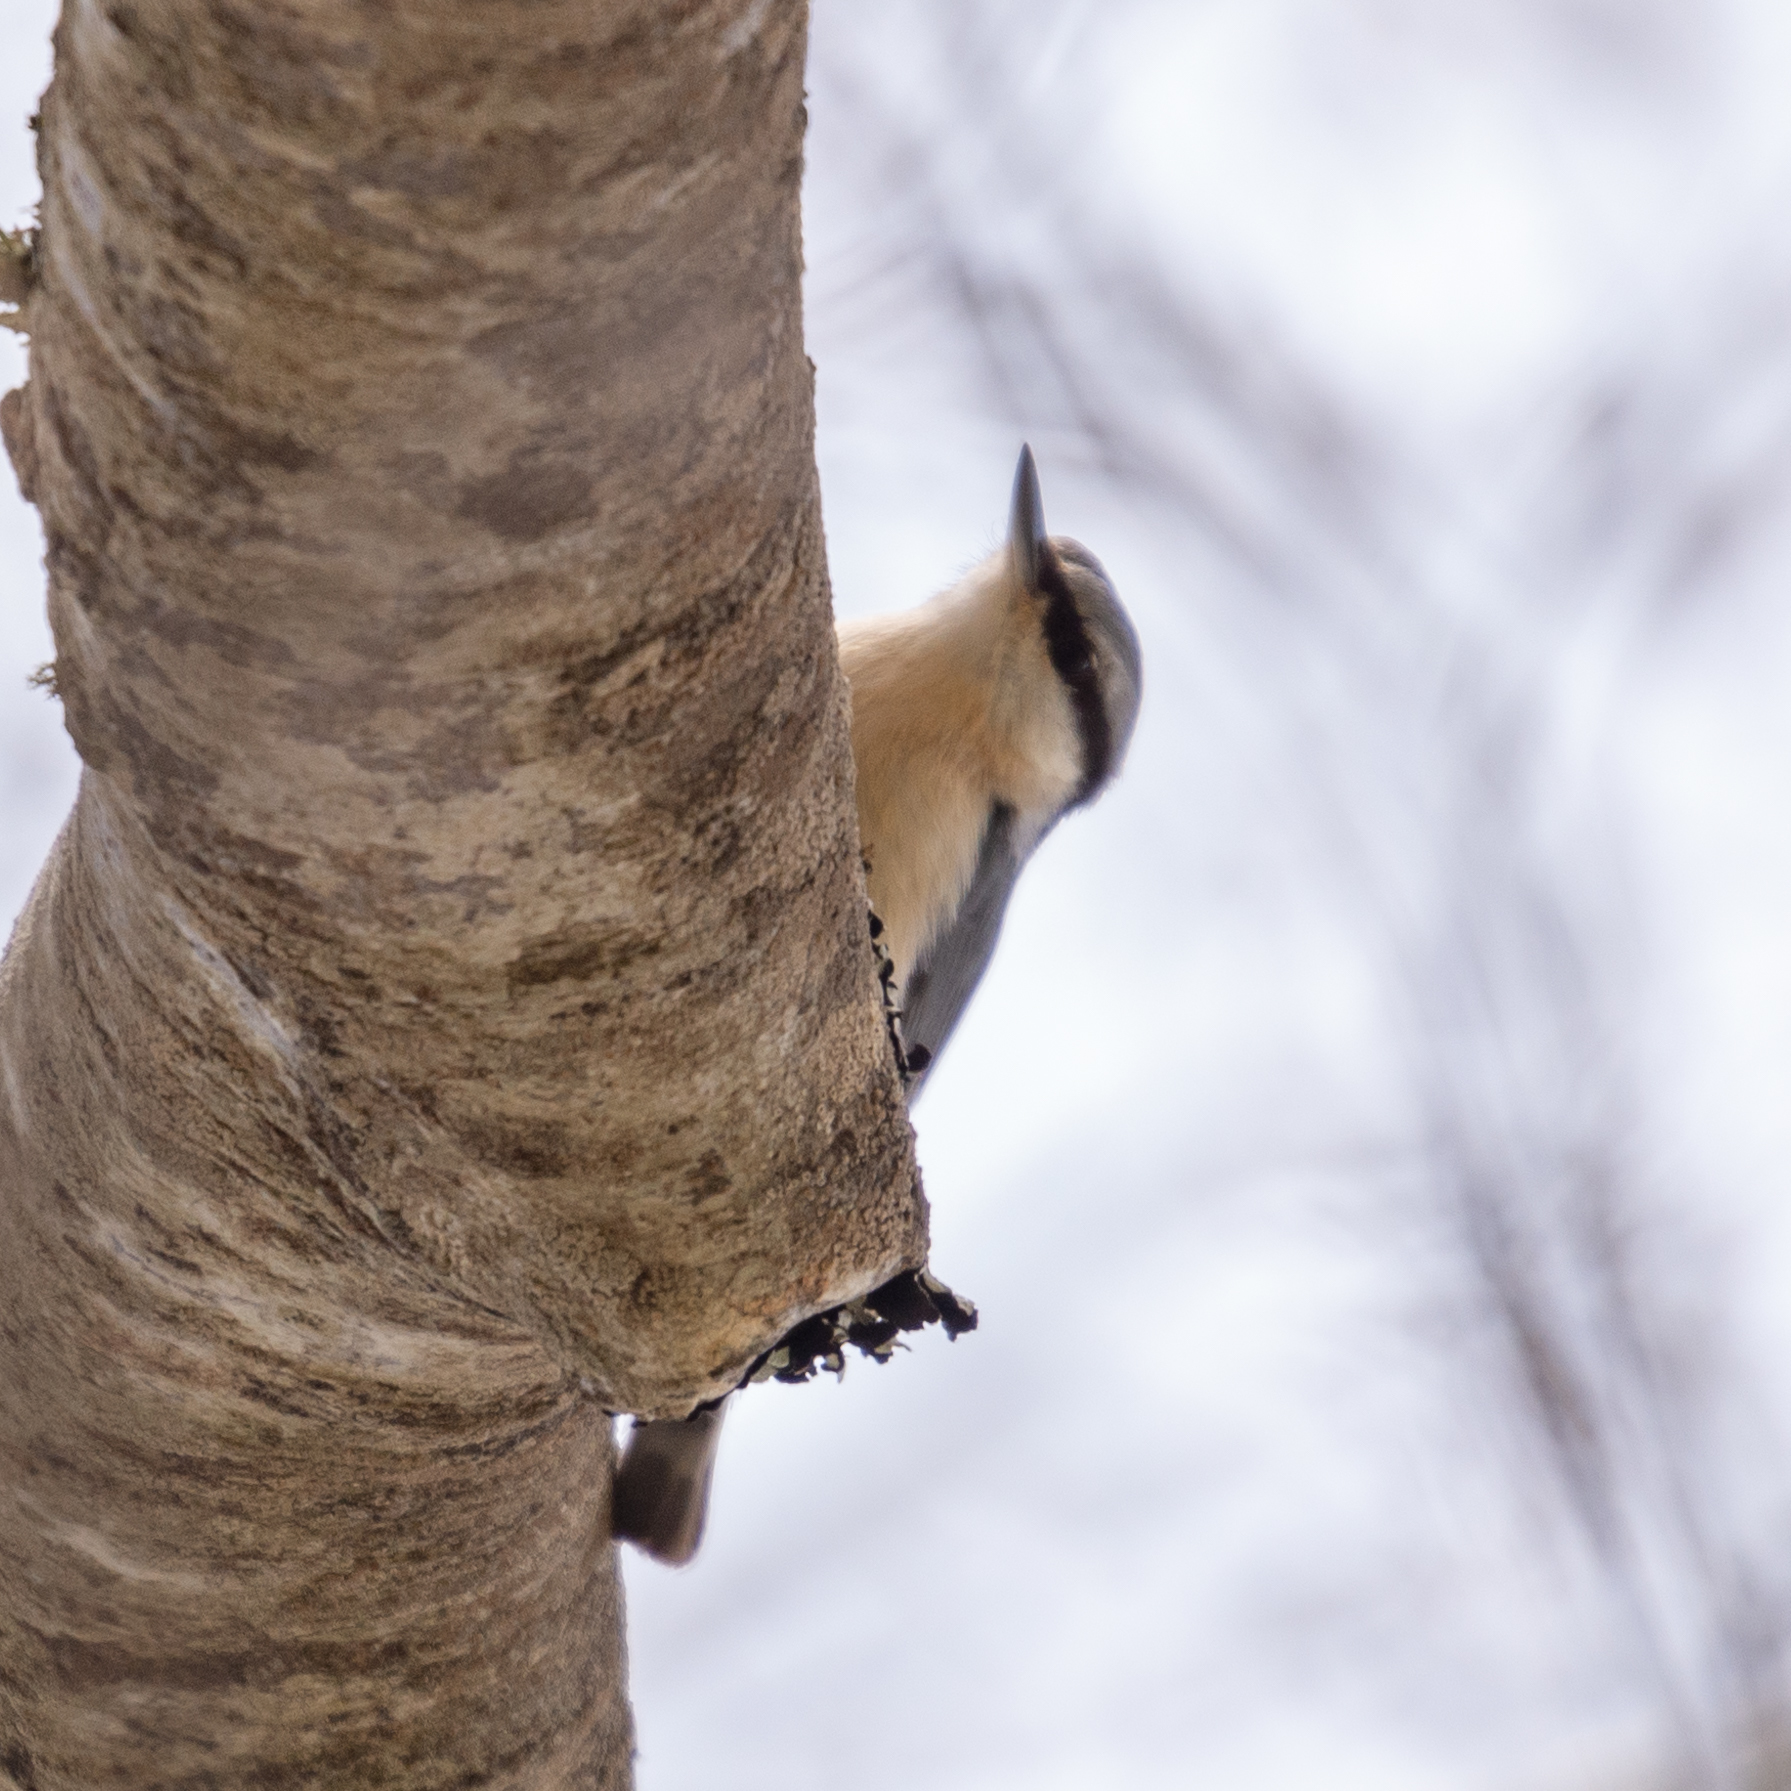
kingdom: Animalia
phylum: Chordata
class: Aves
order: Passeriformes
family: Sittidae
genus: Sitta
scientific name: Sitta europaea
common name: Eurasian nuthatch
